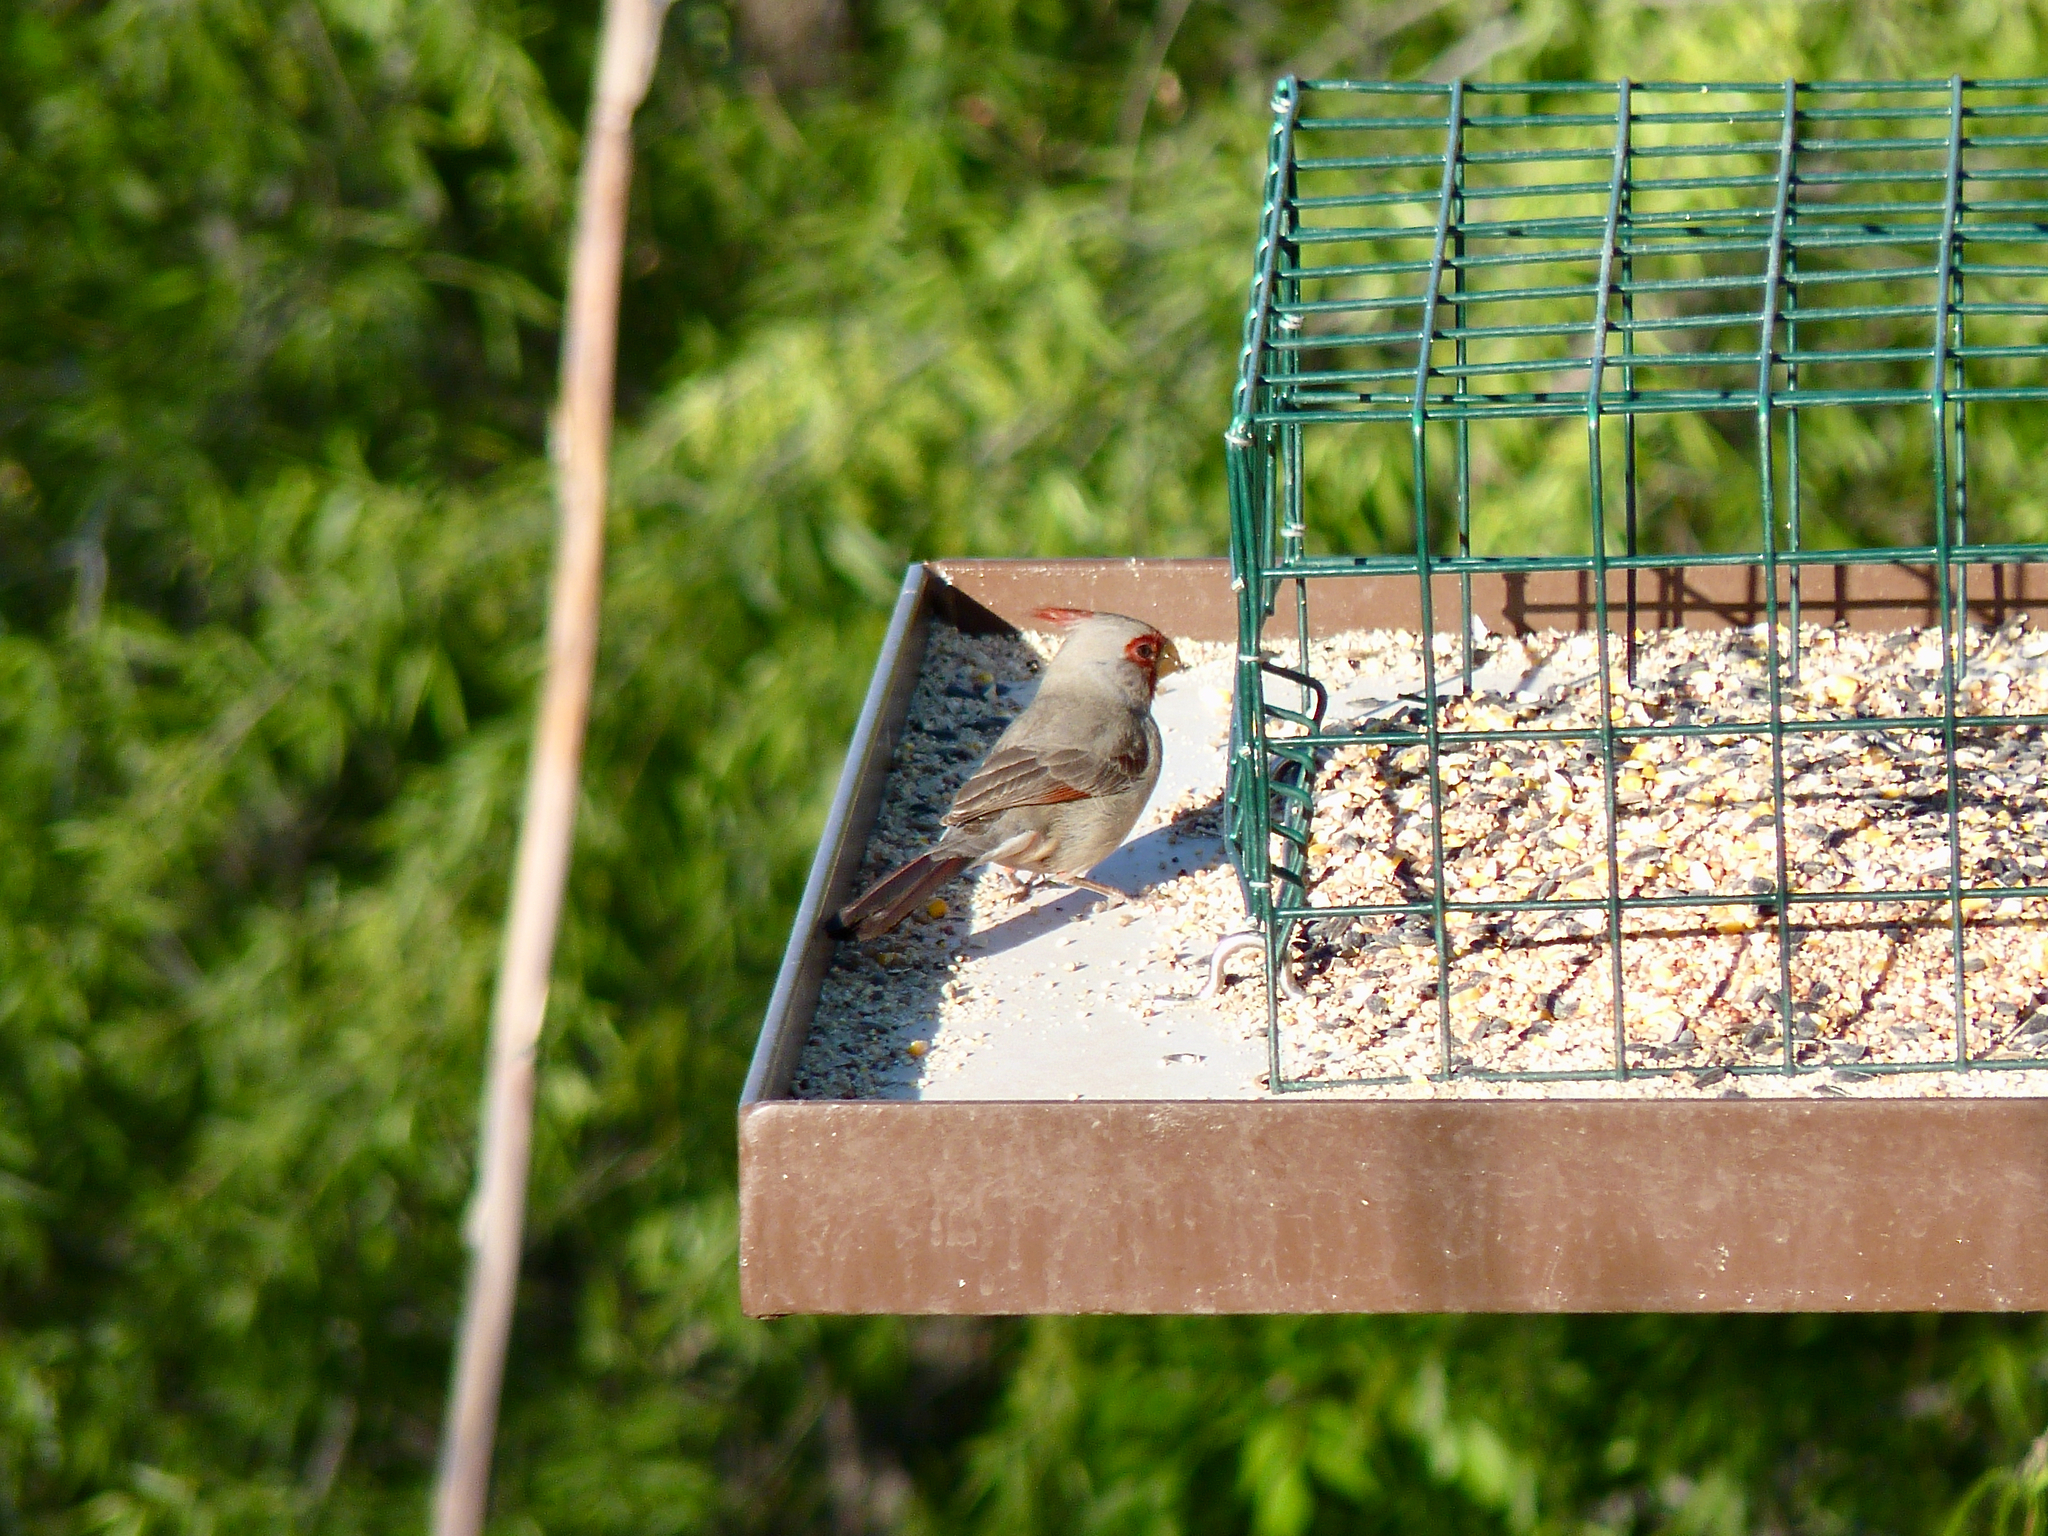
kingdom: Animalia
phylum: Chordata
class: Aves
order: Passeriformes
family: Cardinalidae
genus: Cardinalis
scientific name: Cardinalis sinuatus
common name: Pyrrhuloxia
